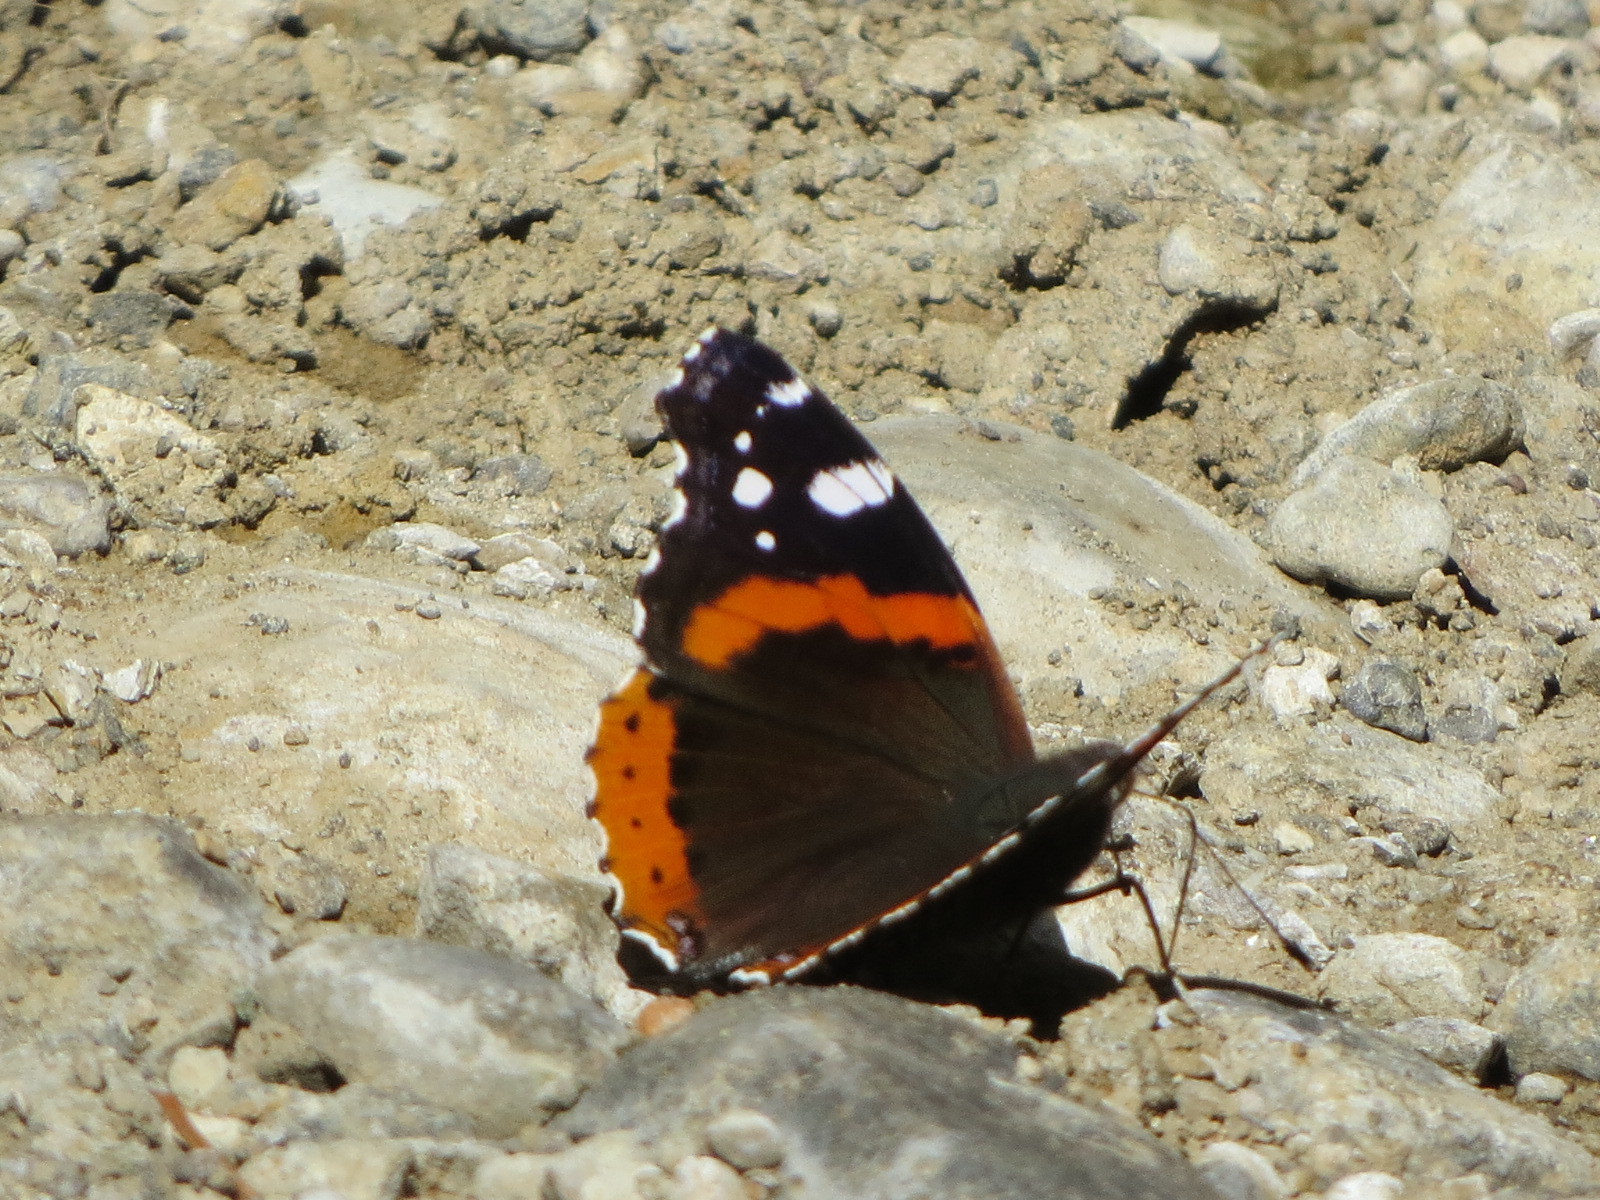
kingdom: Animalia
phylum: Arthropoda
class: Insecta
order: Lepidoptera
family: Nymphalidae
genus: Vanessa
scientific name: Vanessa atalanta
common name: Red admiral
